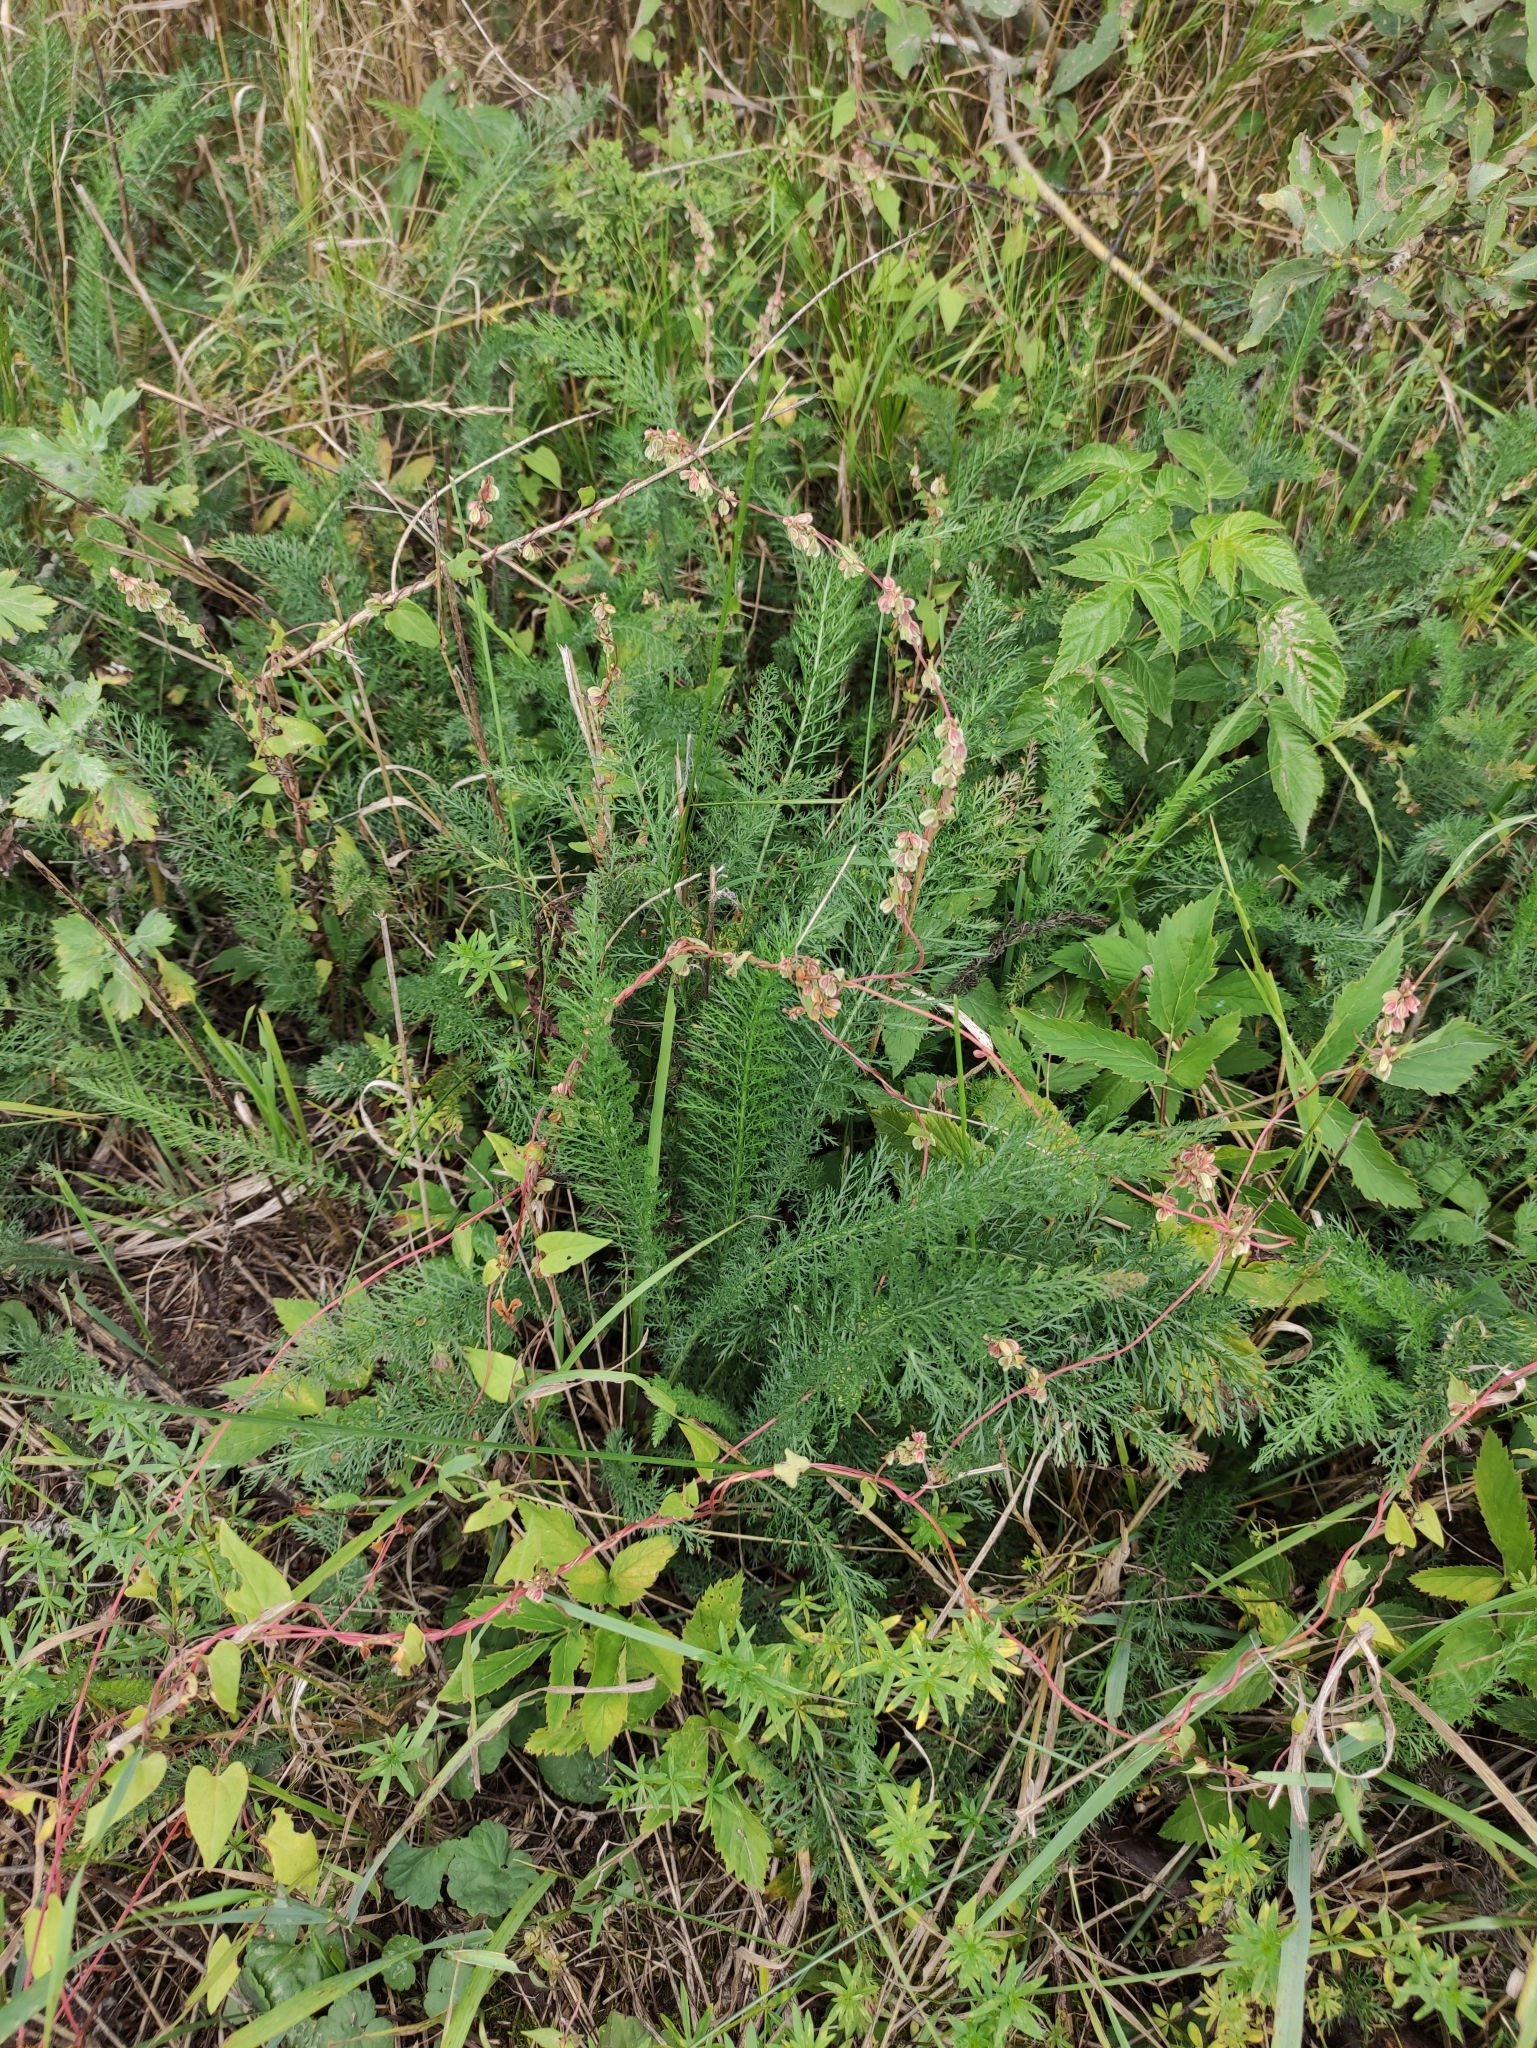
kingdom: Plantae
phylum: Tracheophyta
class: Magnoliopsida
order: Caryophyllales
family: Polygonaceae
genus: Fallopia
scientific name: Fallopia dumetorum
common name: Copse-bindweed
